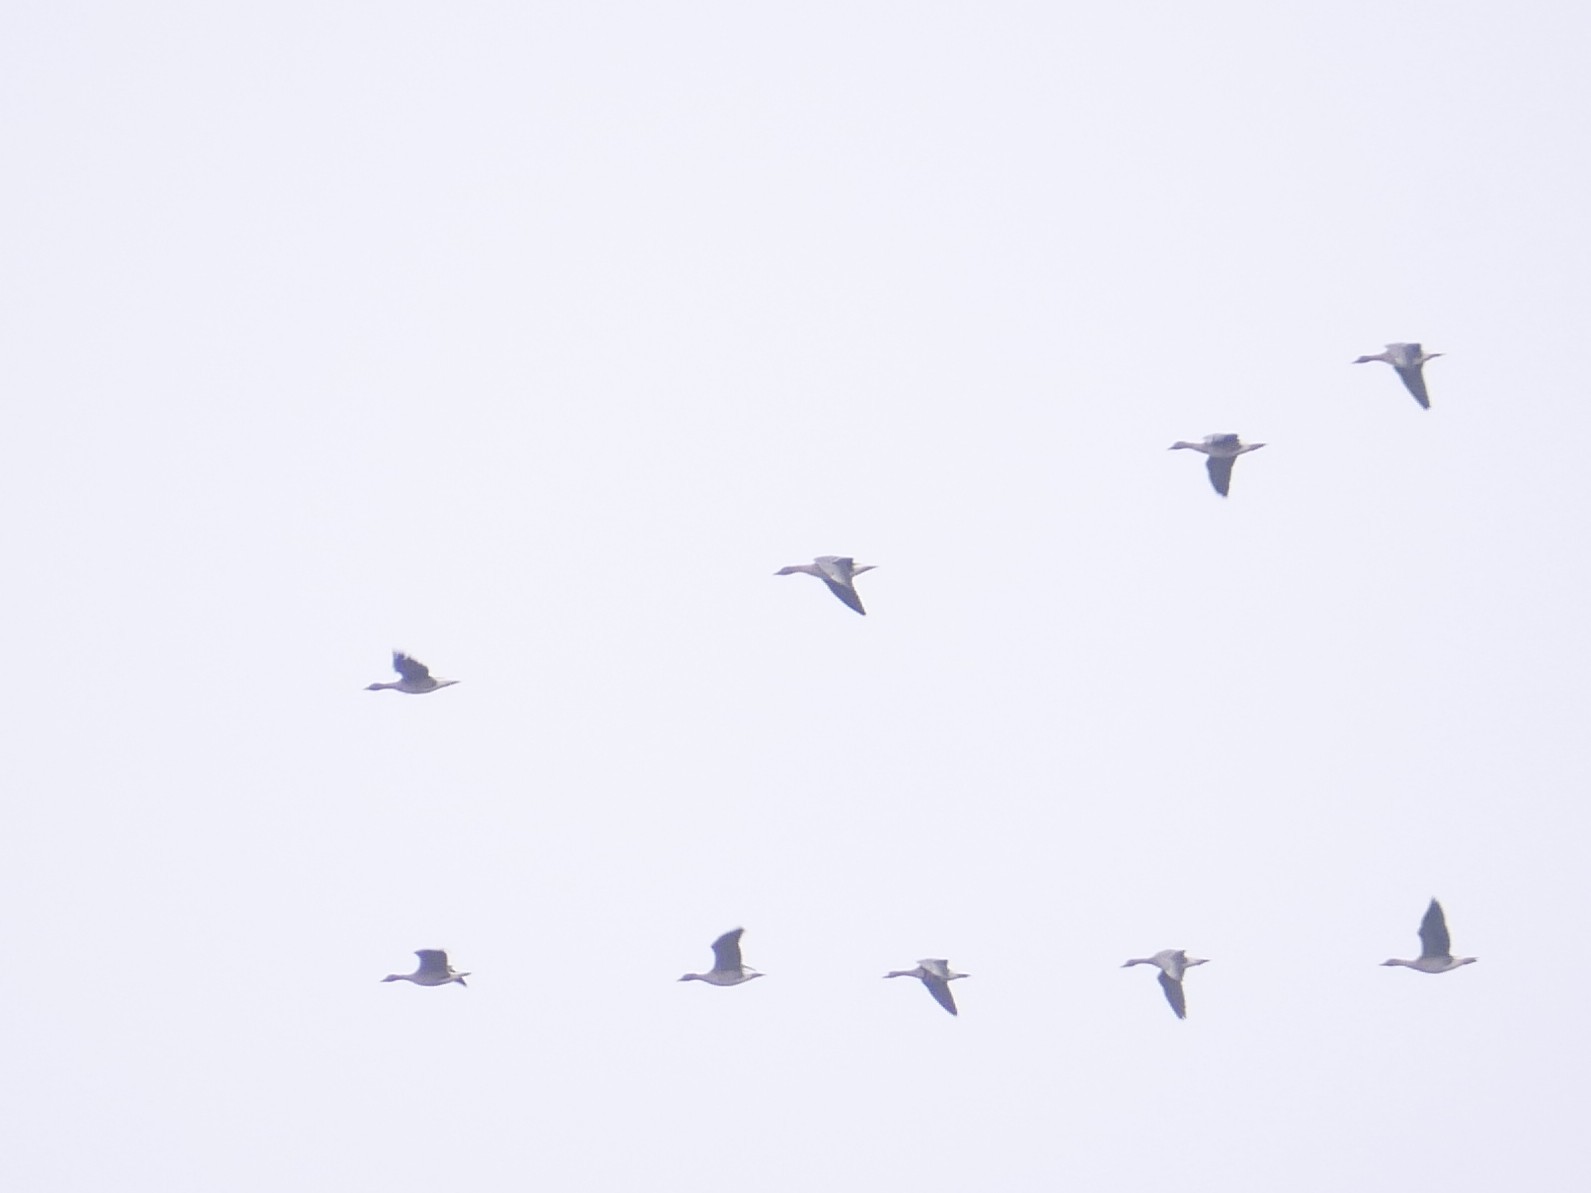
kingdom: Animalia
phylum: Chordata
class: Aves
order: Anseriformes
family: Anatidae
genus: Anser
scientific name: Anser serrirostris
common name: Tundra bean goose
